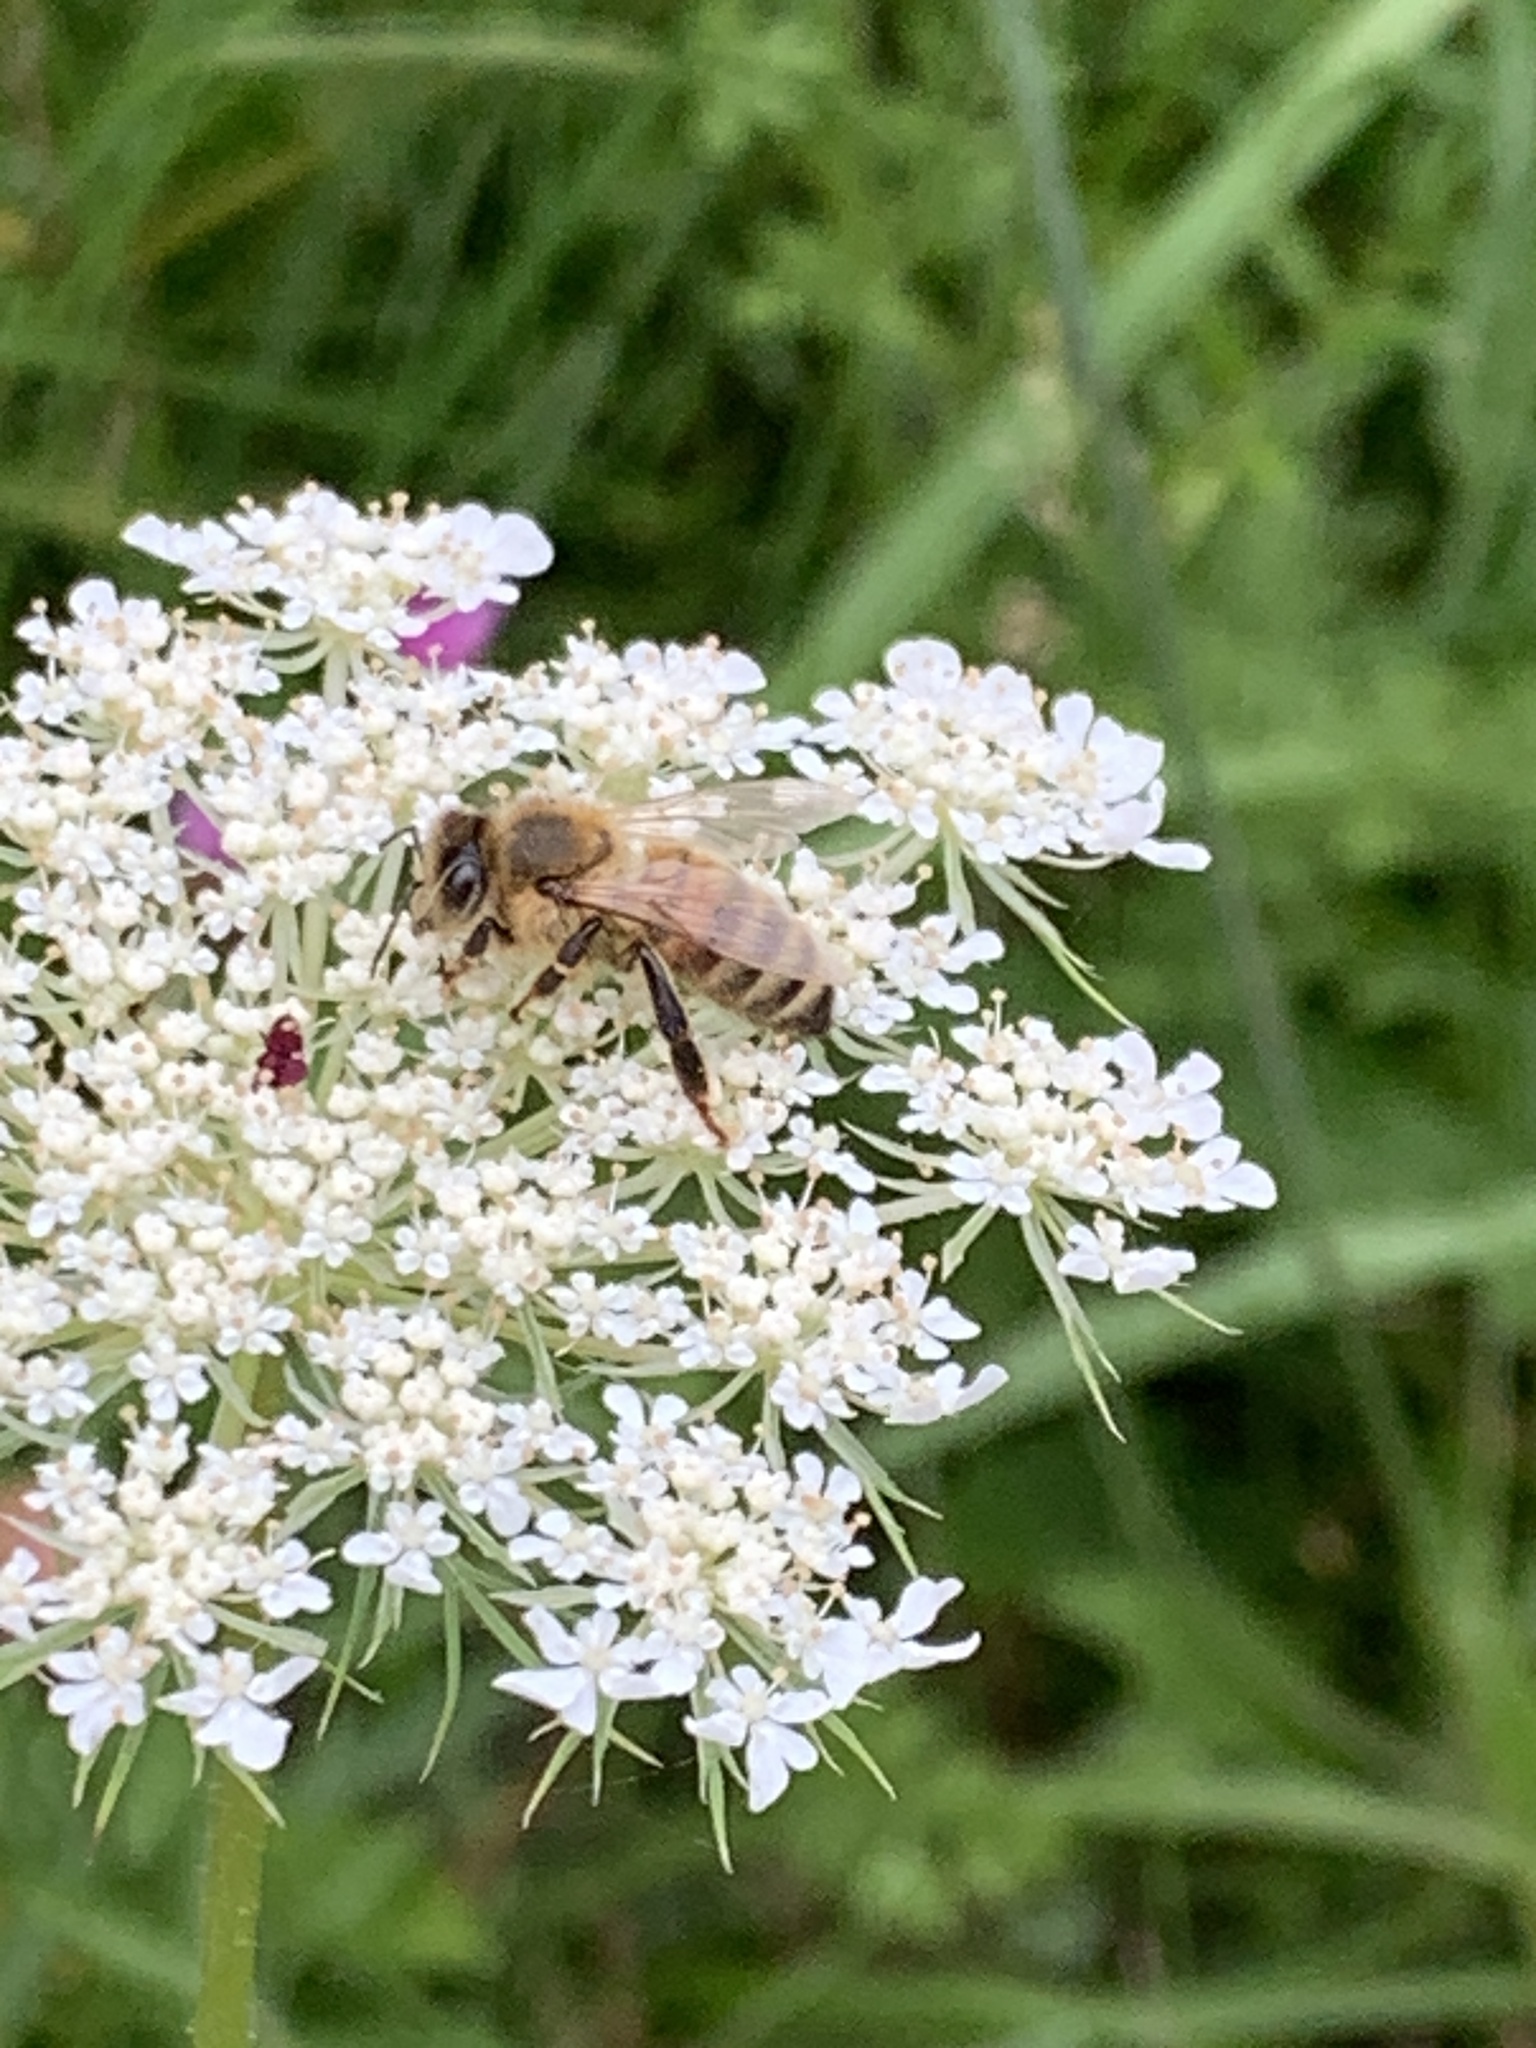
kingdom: Animalia
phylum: Arthropoda
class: Insecta
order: Hymenoptera
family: Apidae
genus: Apis
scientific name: Apis mellifera
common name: Honey bee
